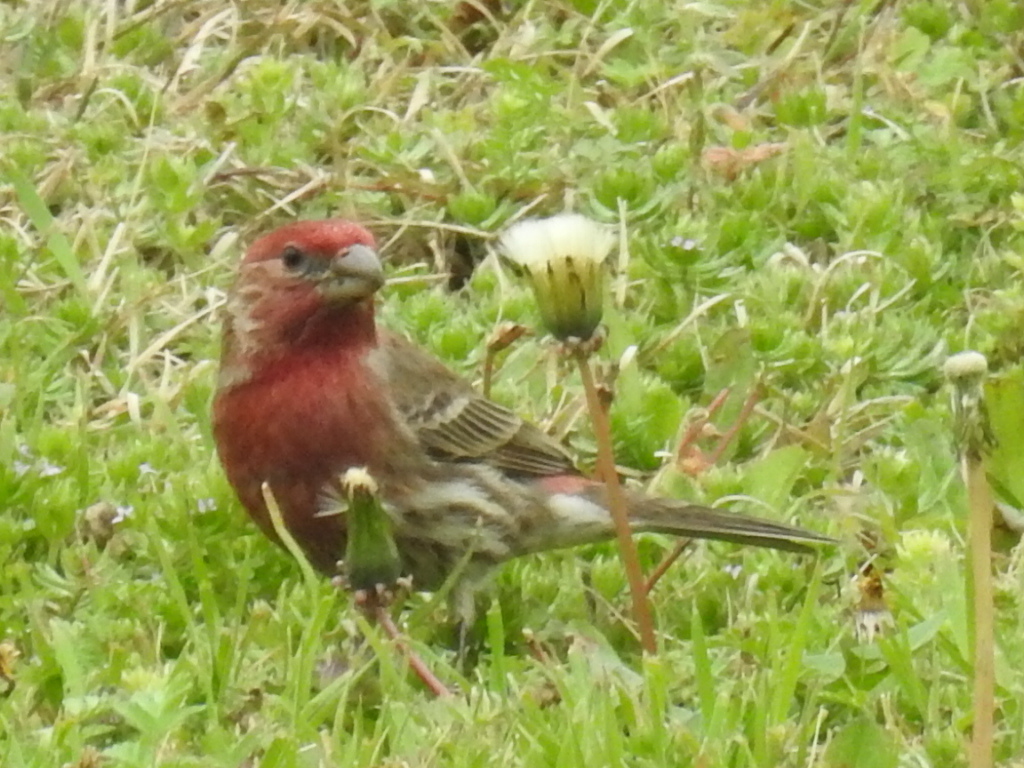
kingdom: Animalia
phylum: Chordata
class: Aves
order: Passeriformes
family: Fringillidae
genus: Haemorhous
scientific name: Haemorhous mexicanus
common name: House finch
